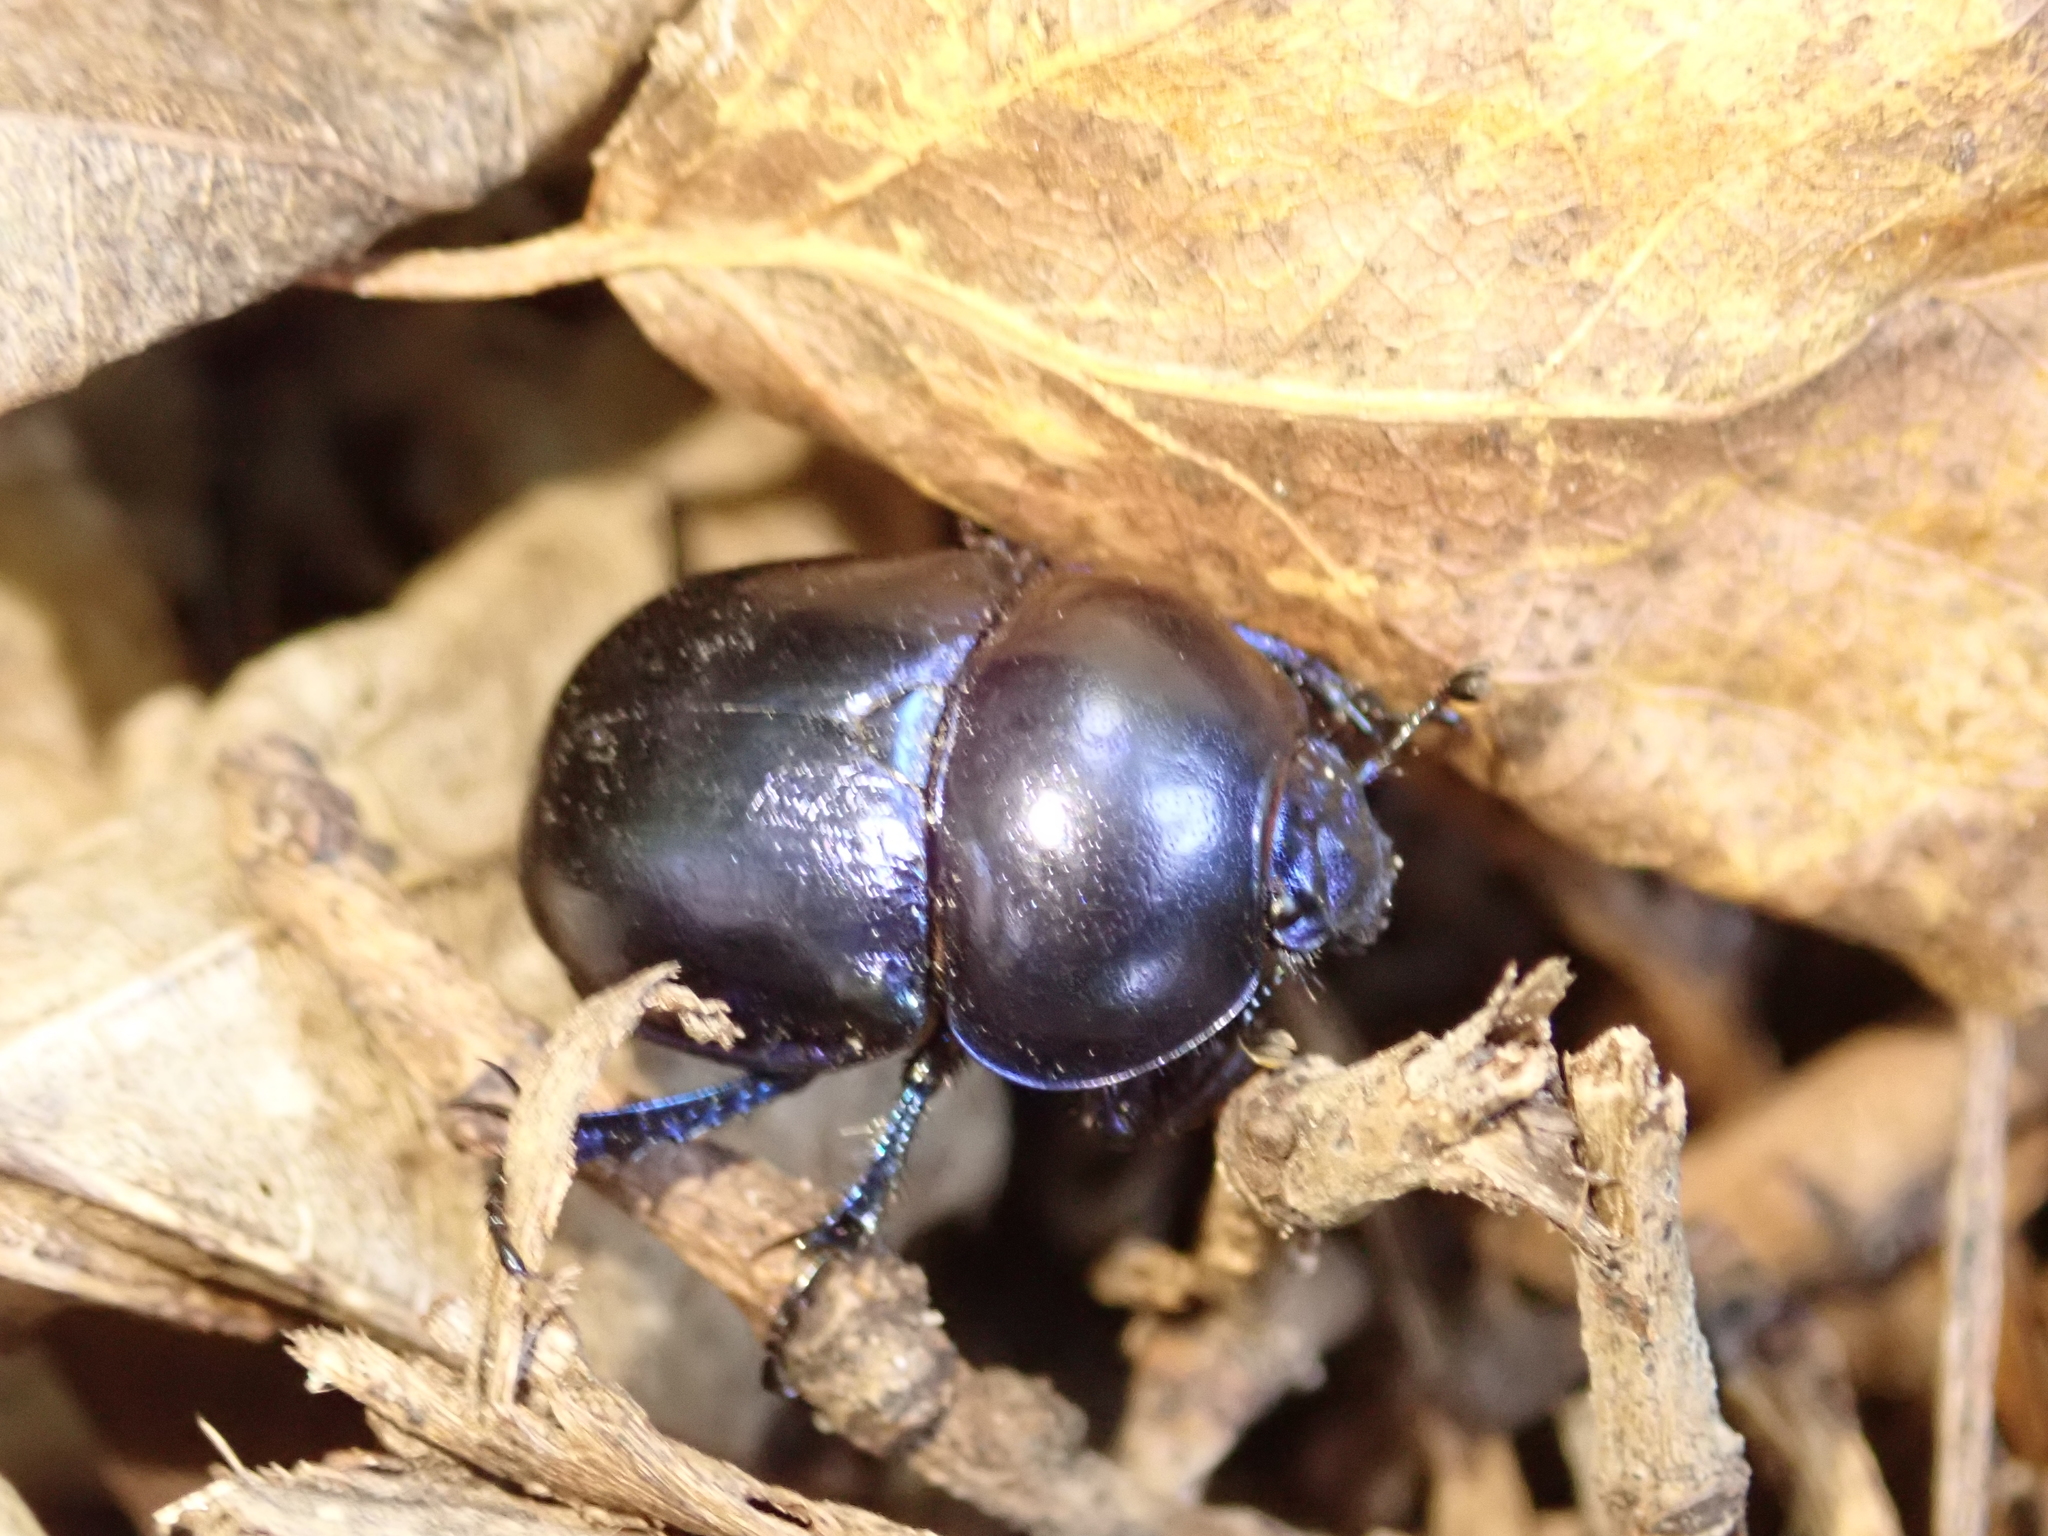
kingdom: Animalia
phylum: Arthropoda
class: Insecta
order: Coleoptera
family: Geotrupidae
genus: Trypocopris
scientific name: Trypocopris vernalis
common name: Spring dumbledor
